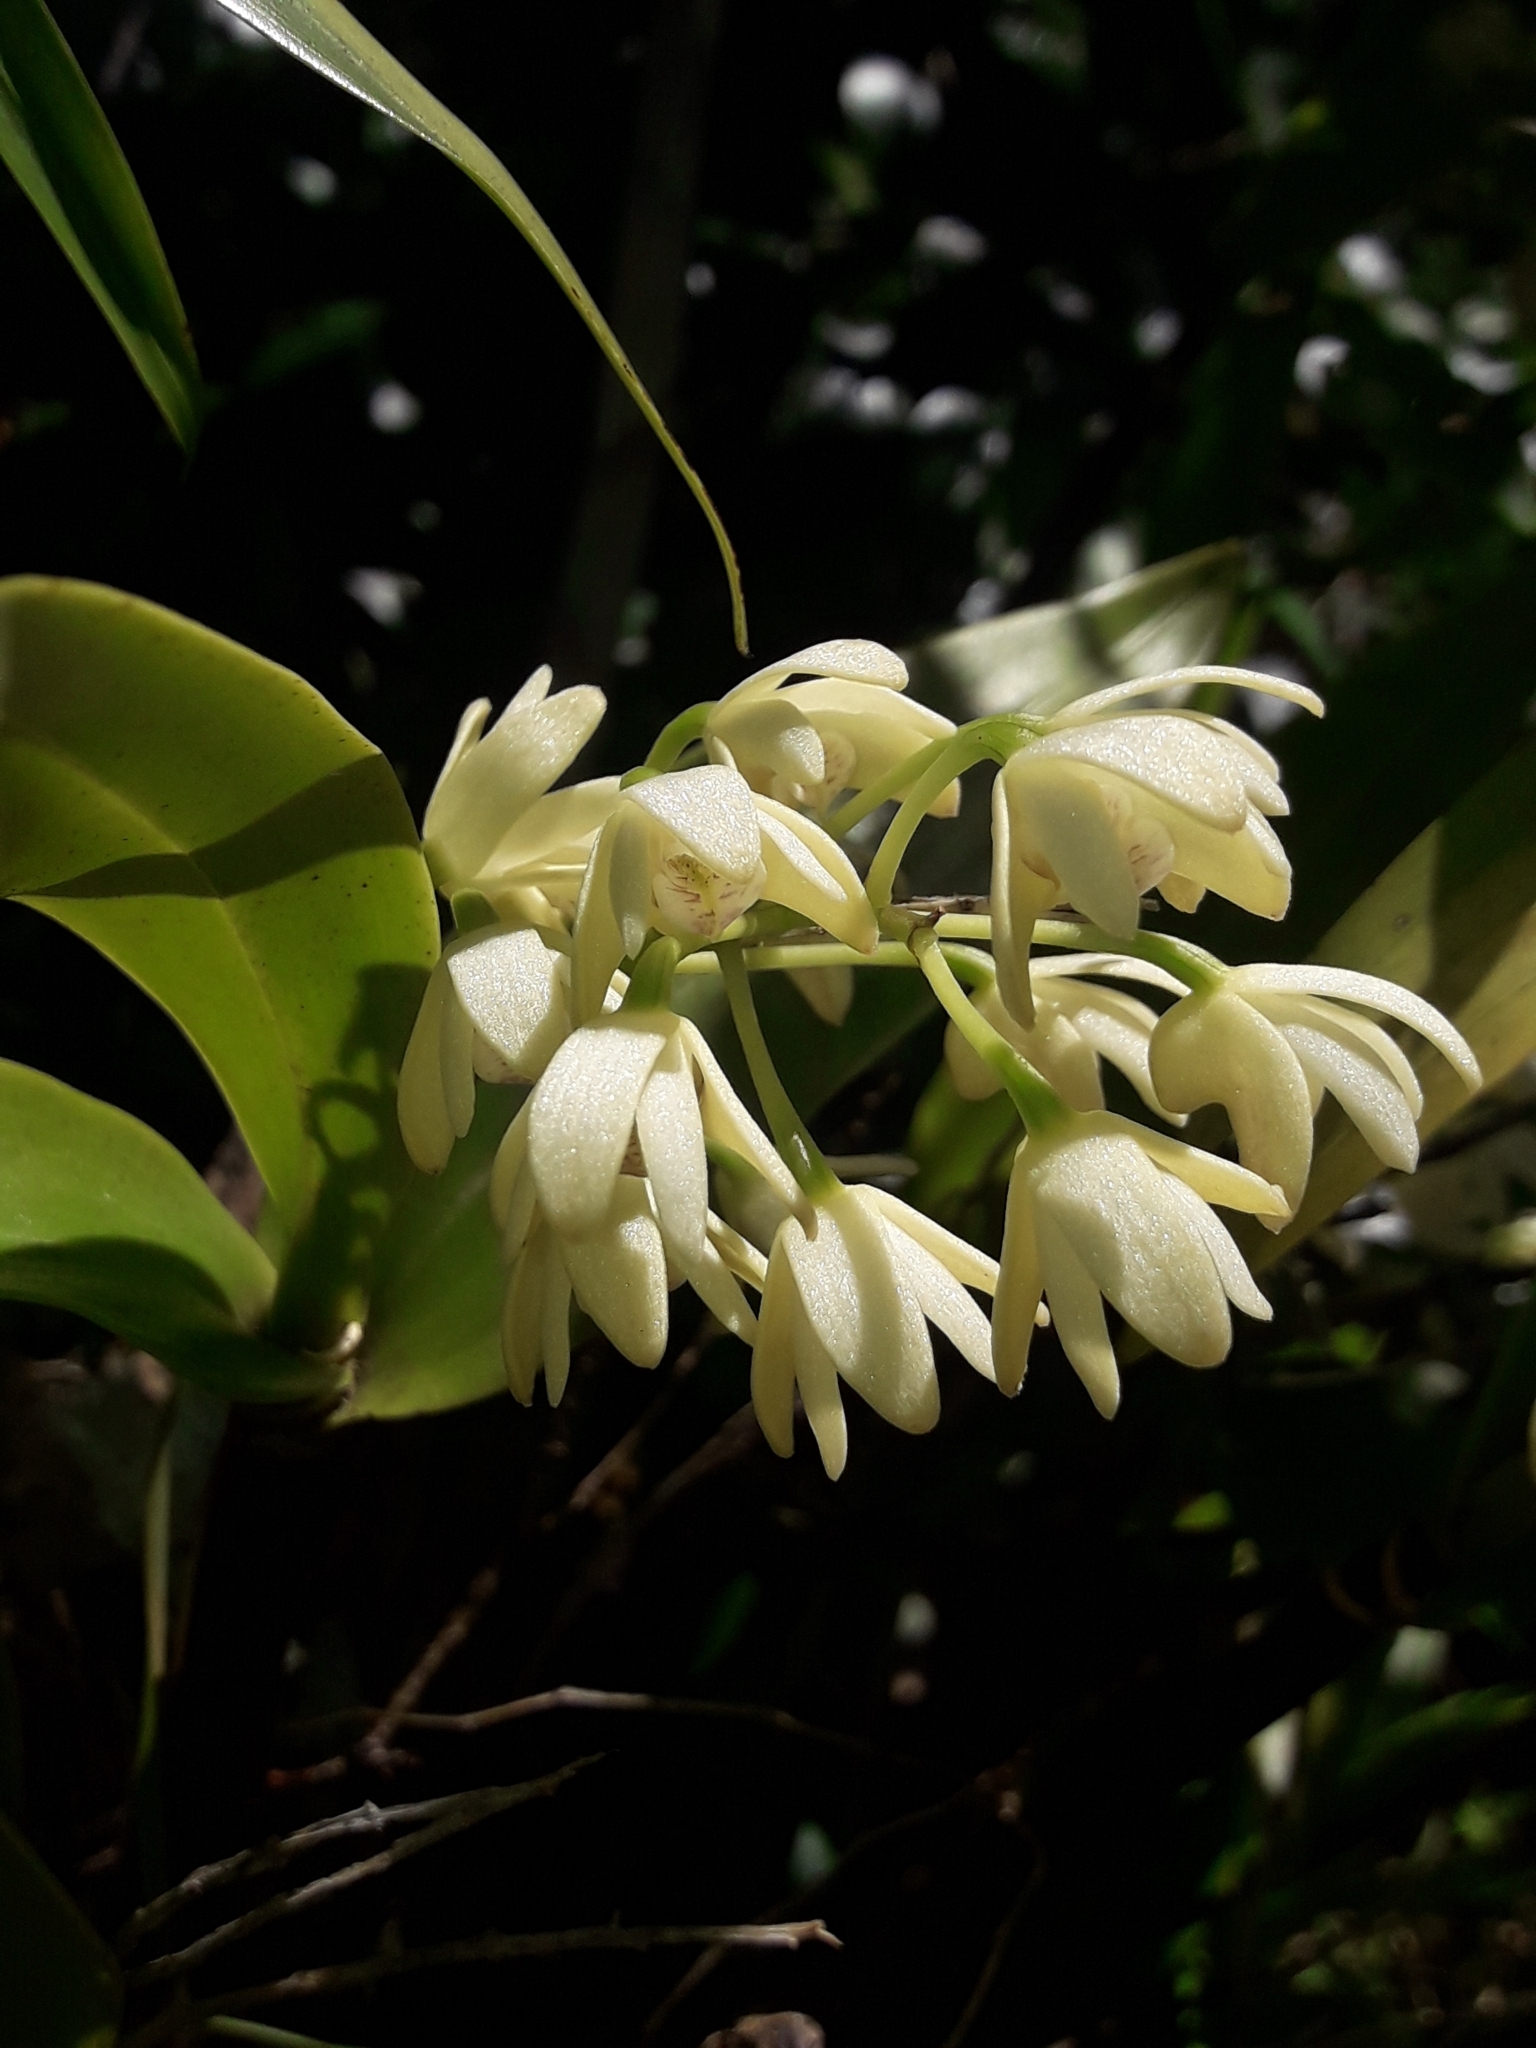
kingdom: Plantae
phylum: Tracheophyta
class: Liliopsida
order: Asparagales
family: Orchidaceae
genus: Dendrobium
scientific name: Dendrobium gracilicaule
